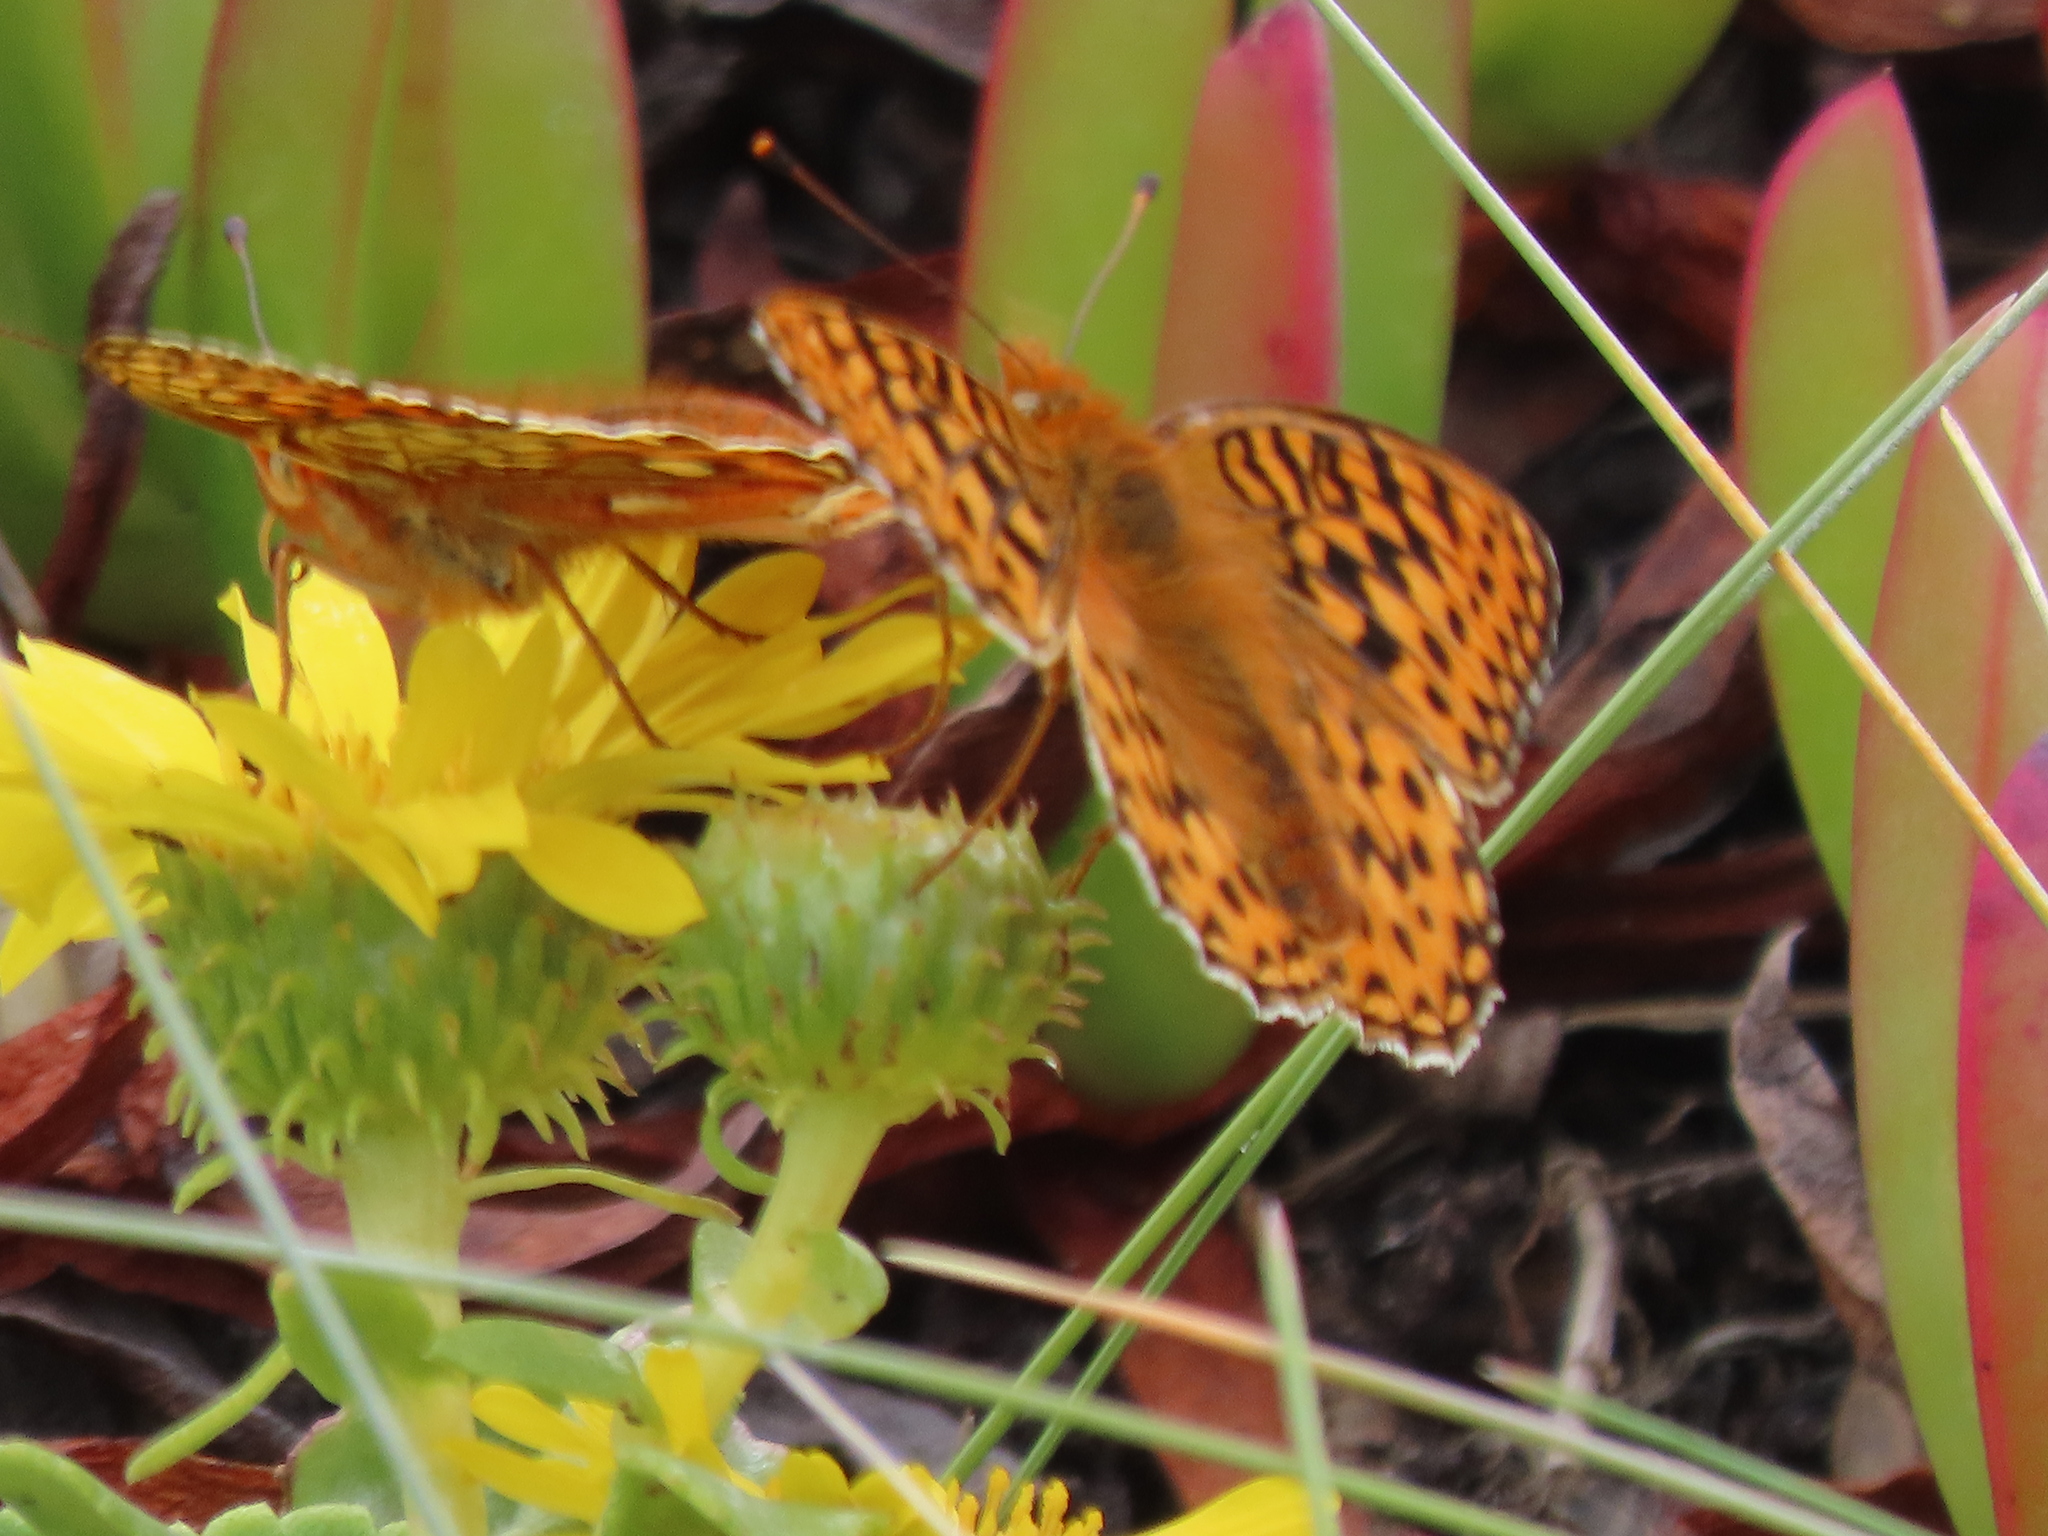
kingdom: Animalia
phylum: Arthropoda
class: Insecta
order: Lepidoptera
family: Nymphalidae
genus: Speyeria
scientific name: Speyeria zerene
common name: Zerene fritillary
